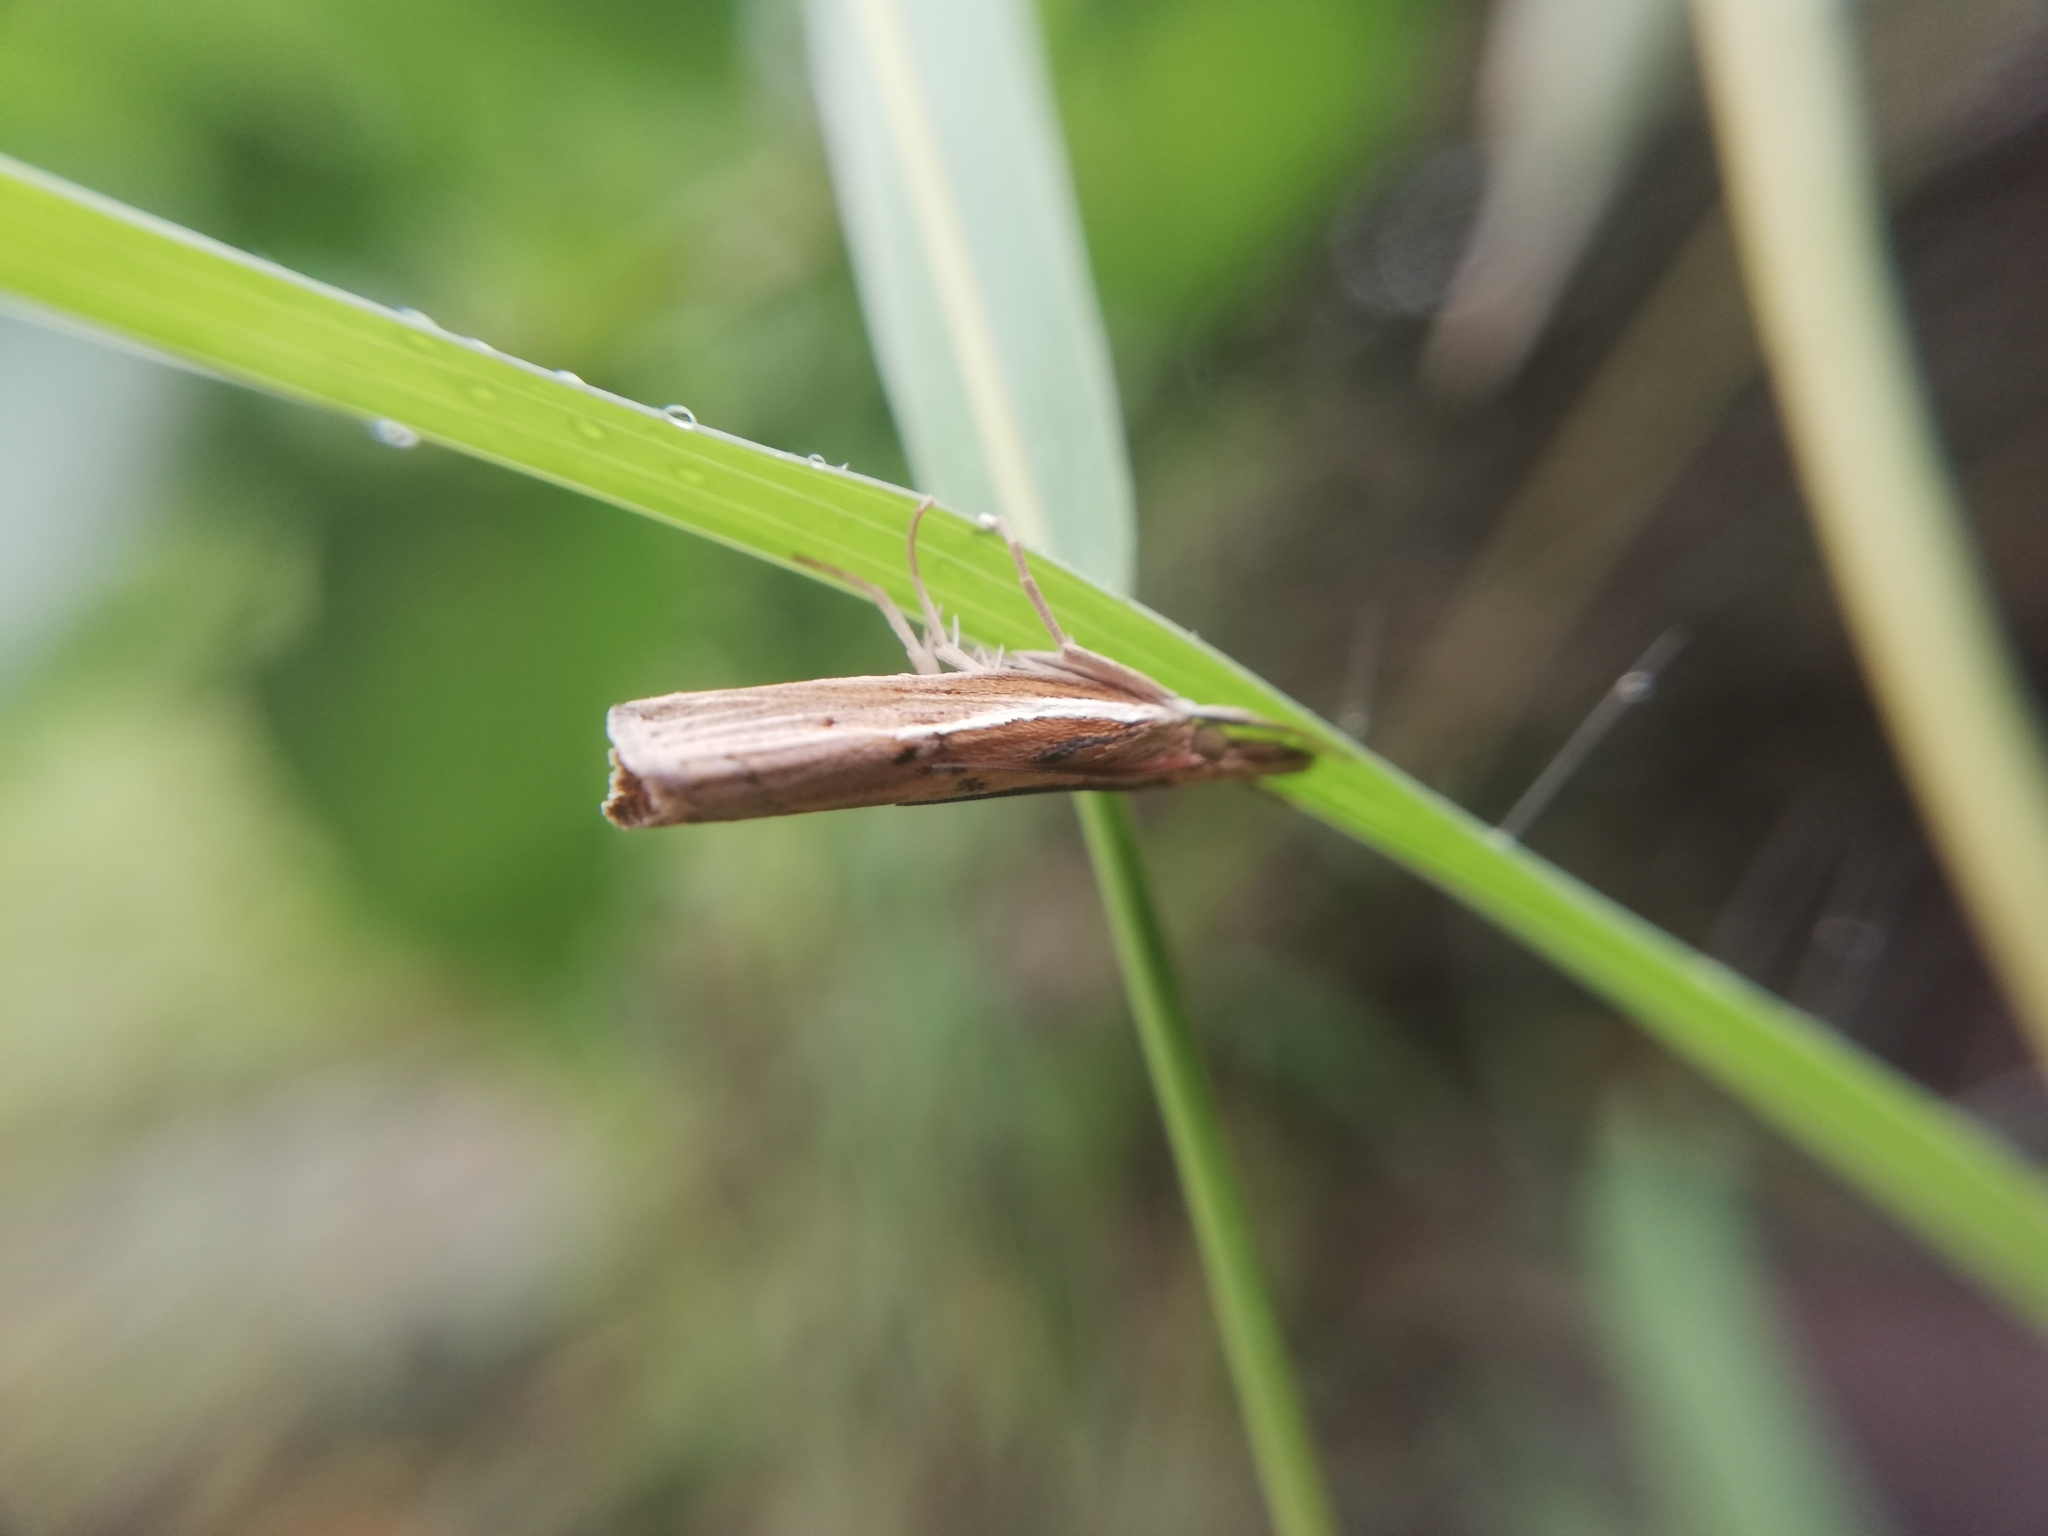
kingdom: Animalia
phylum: Arthropoda
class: Insecta
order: Lepidoptera
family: Crambidae
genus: Fissicrambus
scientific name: Fissicrambus fissiradiellus
